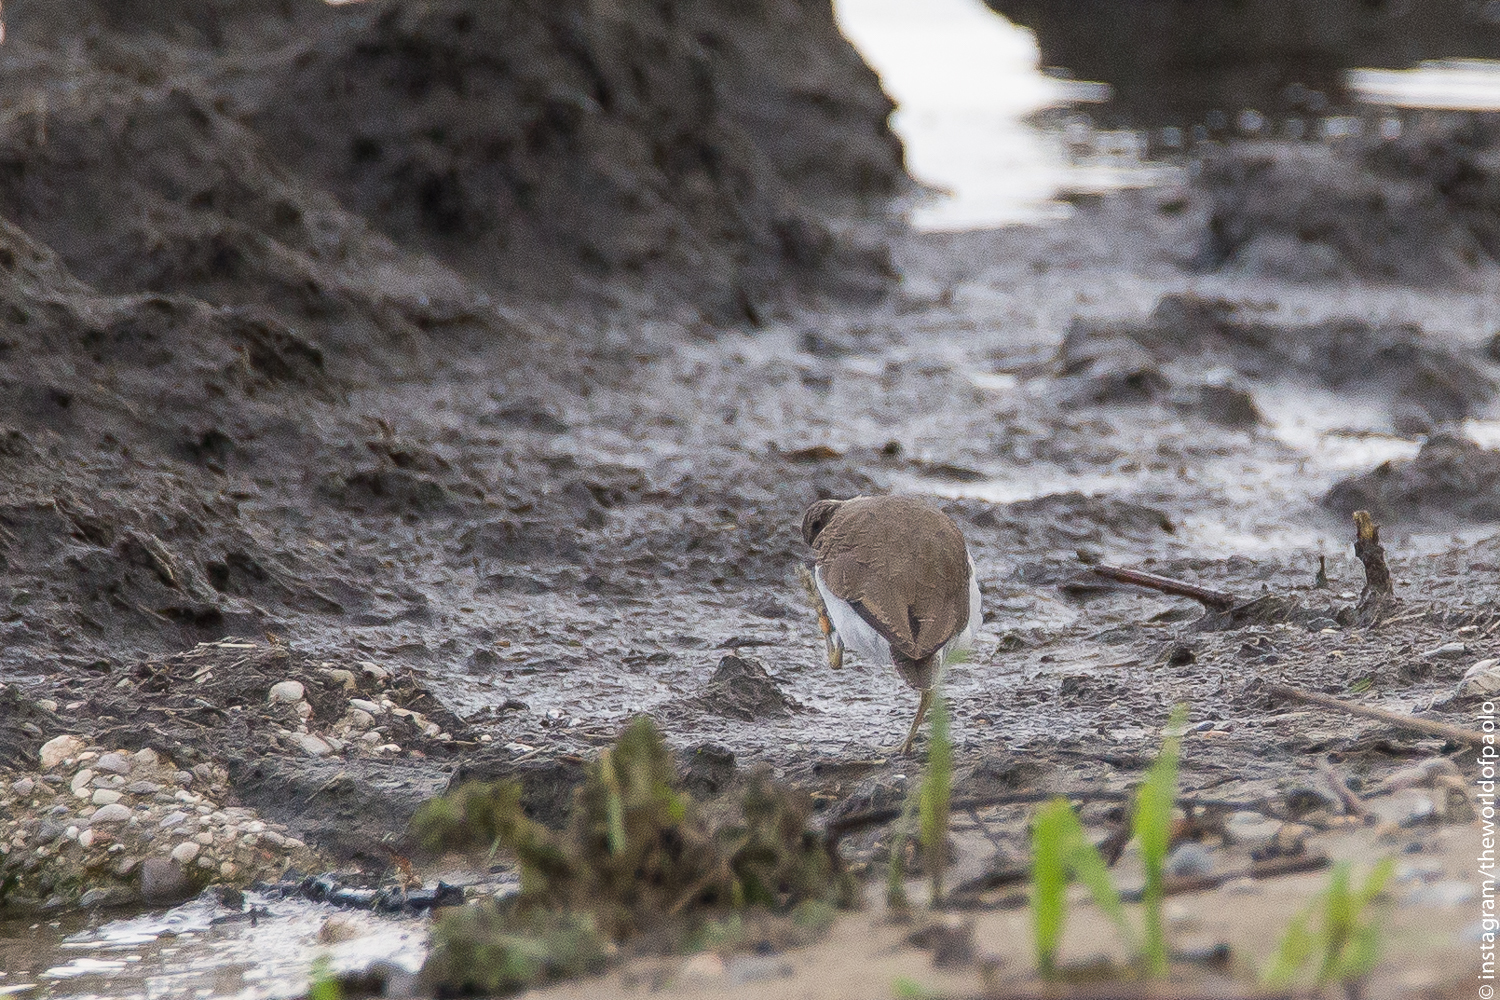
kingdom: Animalia
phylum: Chordata
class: Aves
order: Charadriiformes
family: Scolopacidae
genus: Actitis
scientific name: Actitis hypoleucos
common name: Common sandpiper
